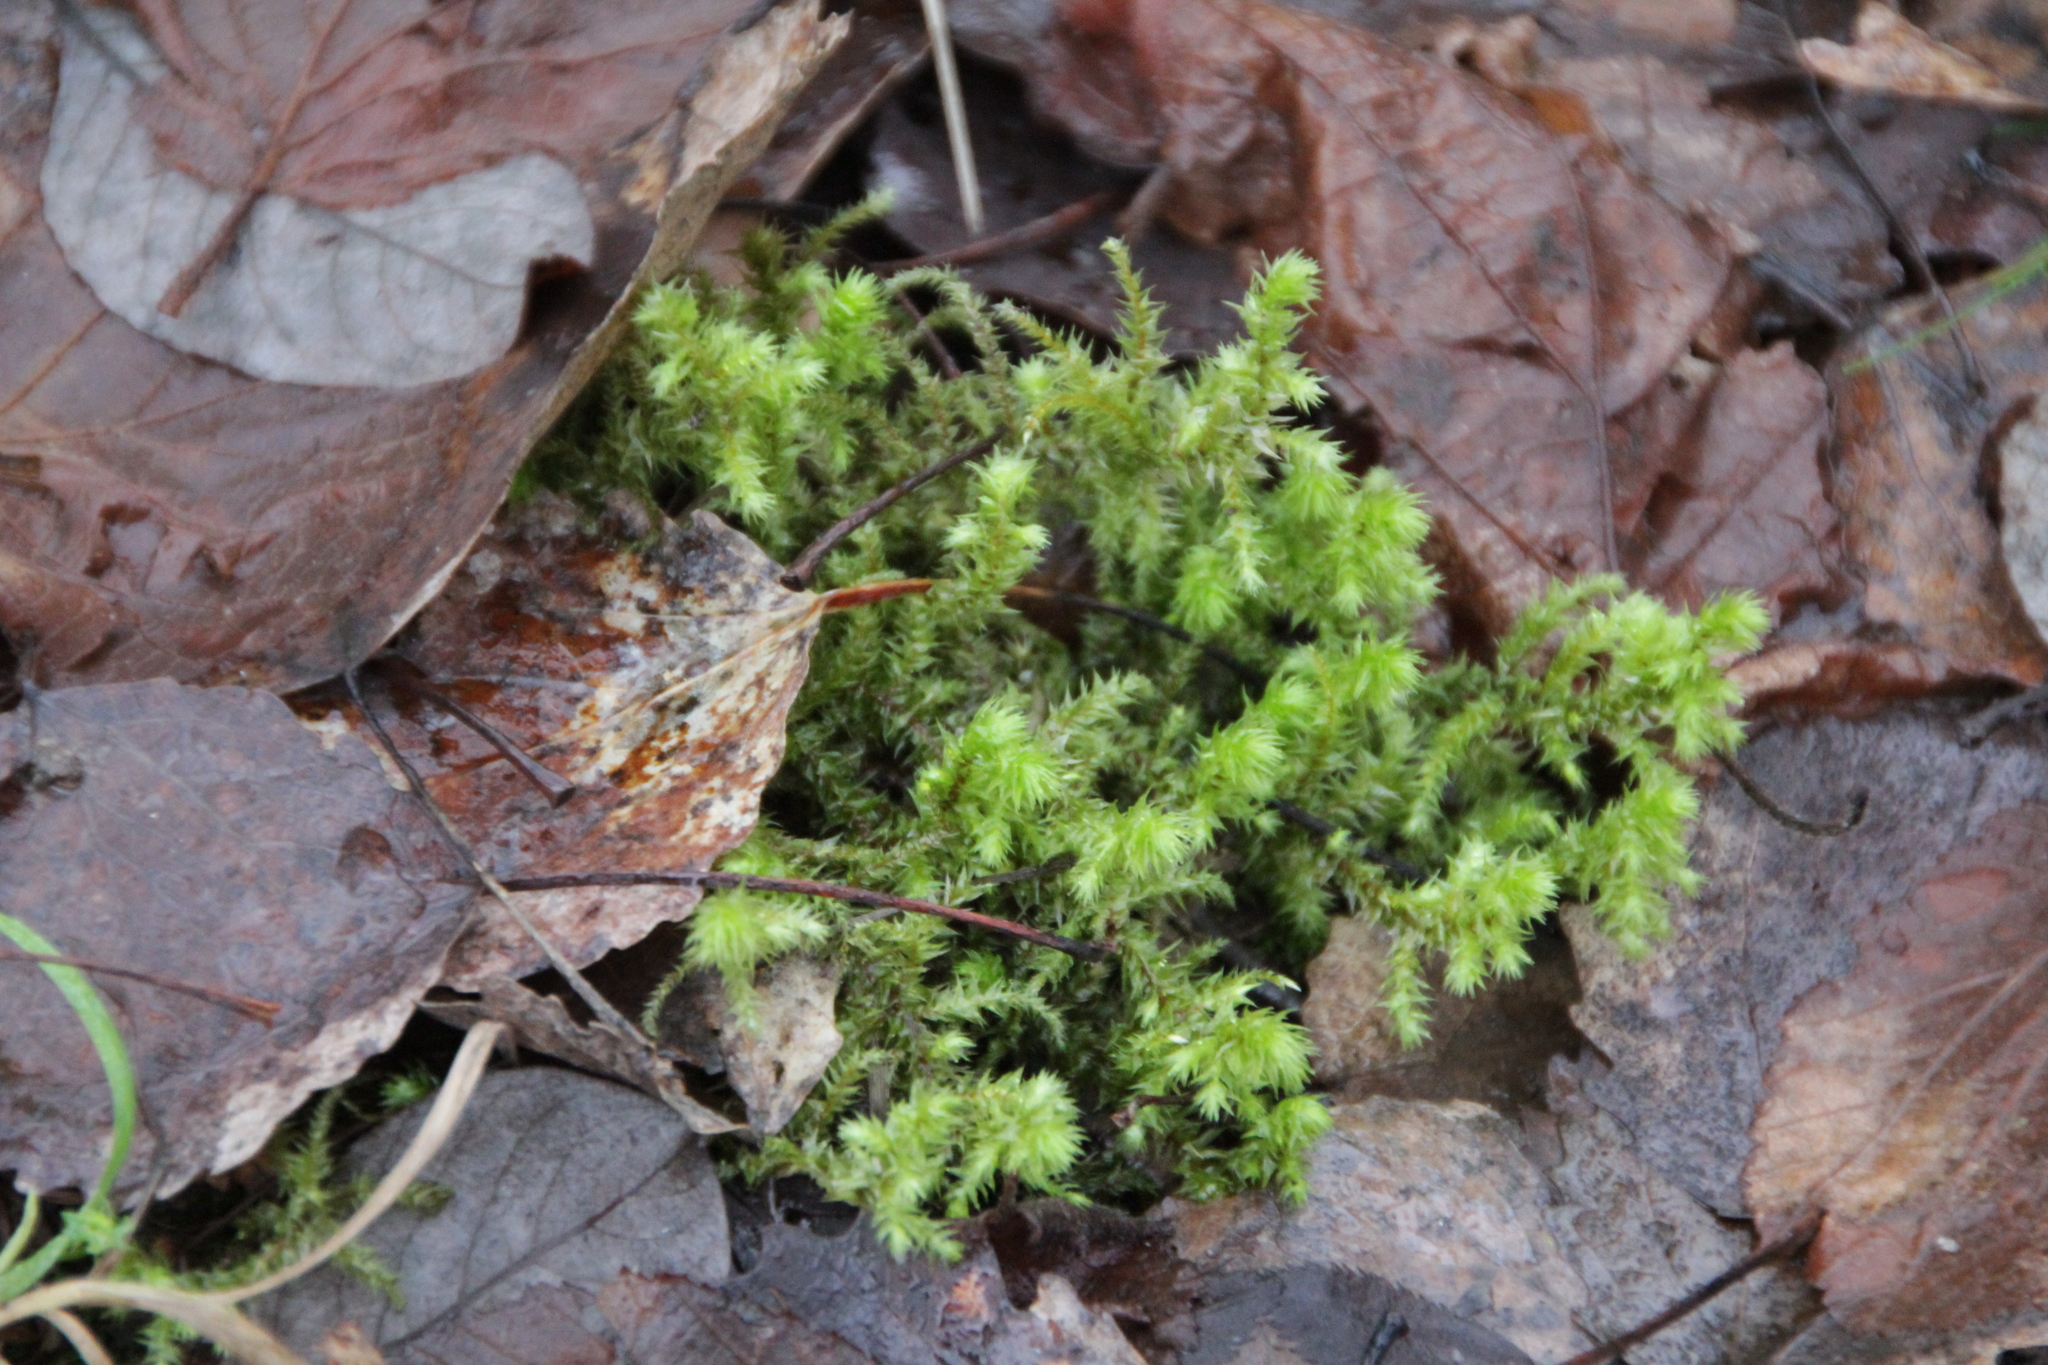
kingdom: Plantae
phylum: Bryophyta
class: Bryopsida
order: Hypnales
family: Hylocomiaceae
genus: Hylocomiadelphus
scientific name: Hylocomiadelphus triquetrus
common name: Rough goose neck moss
